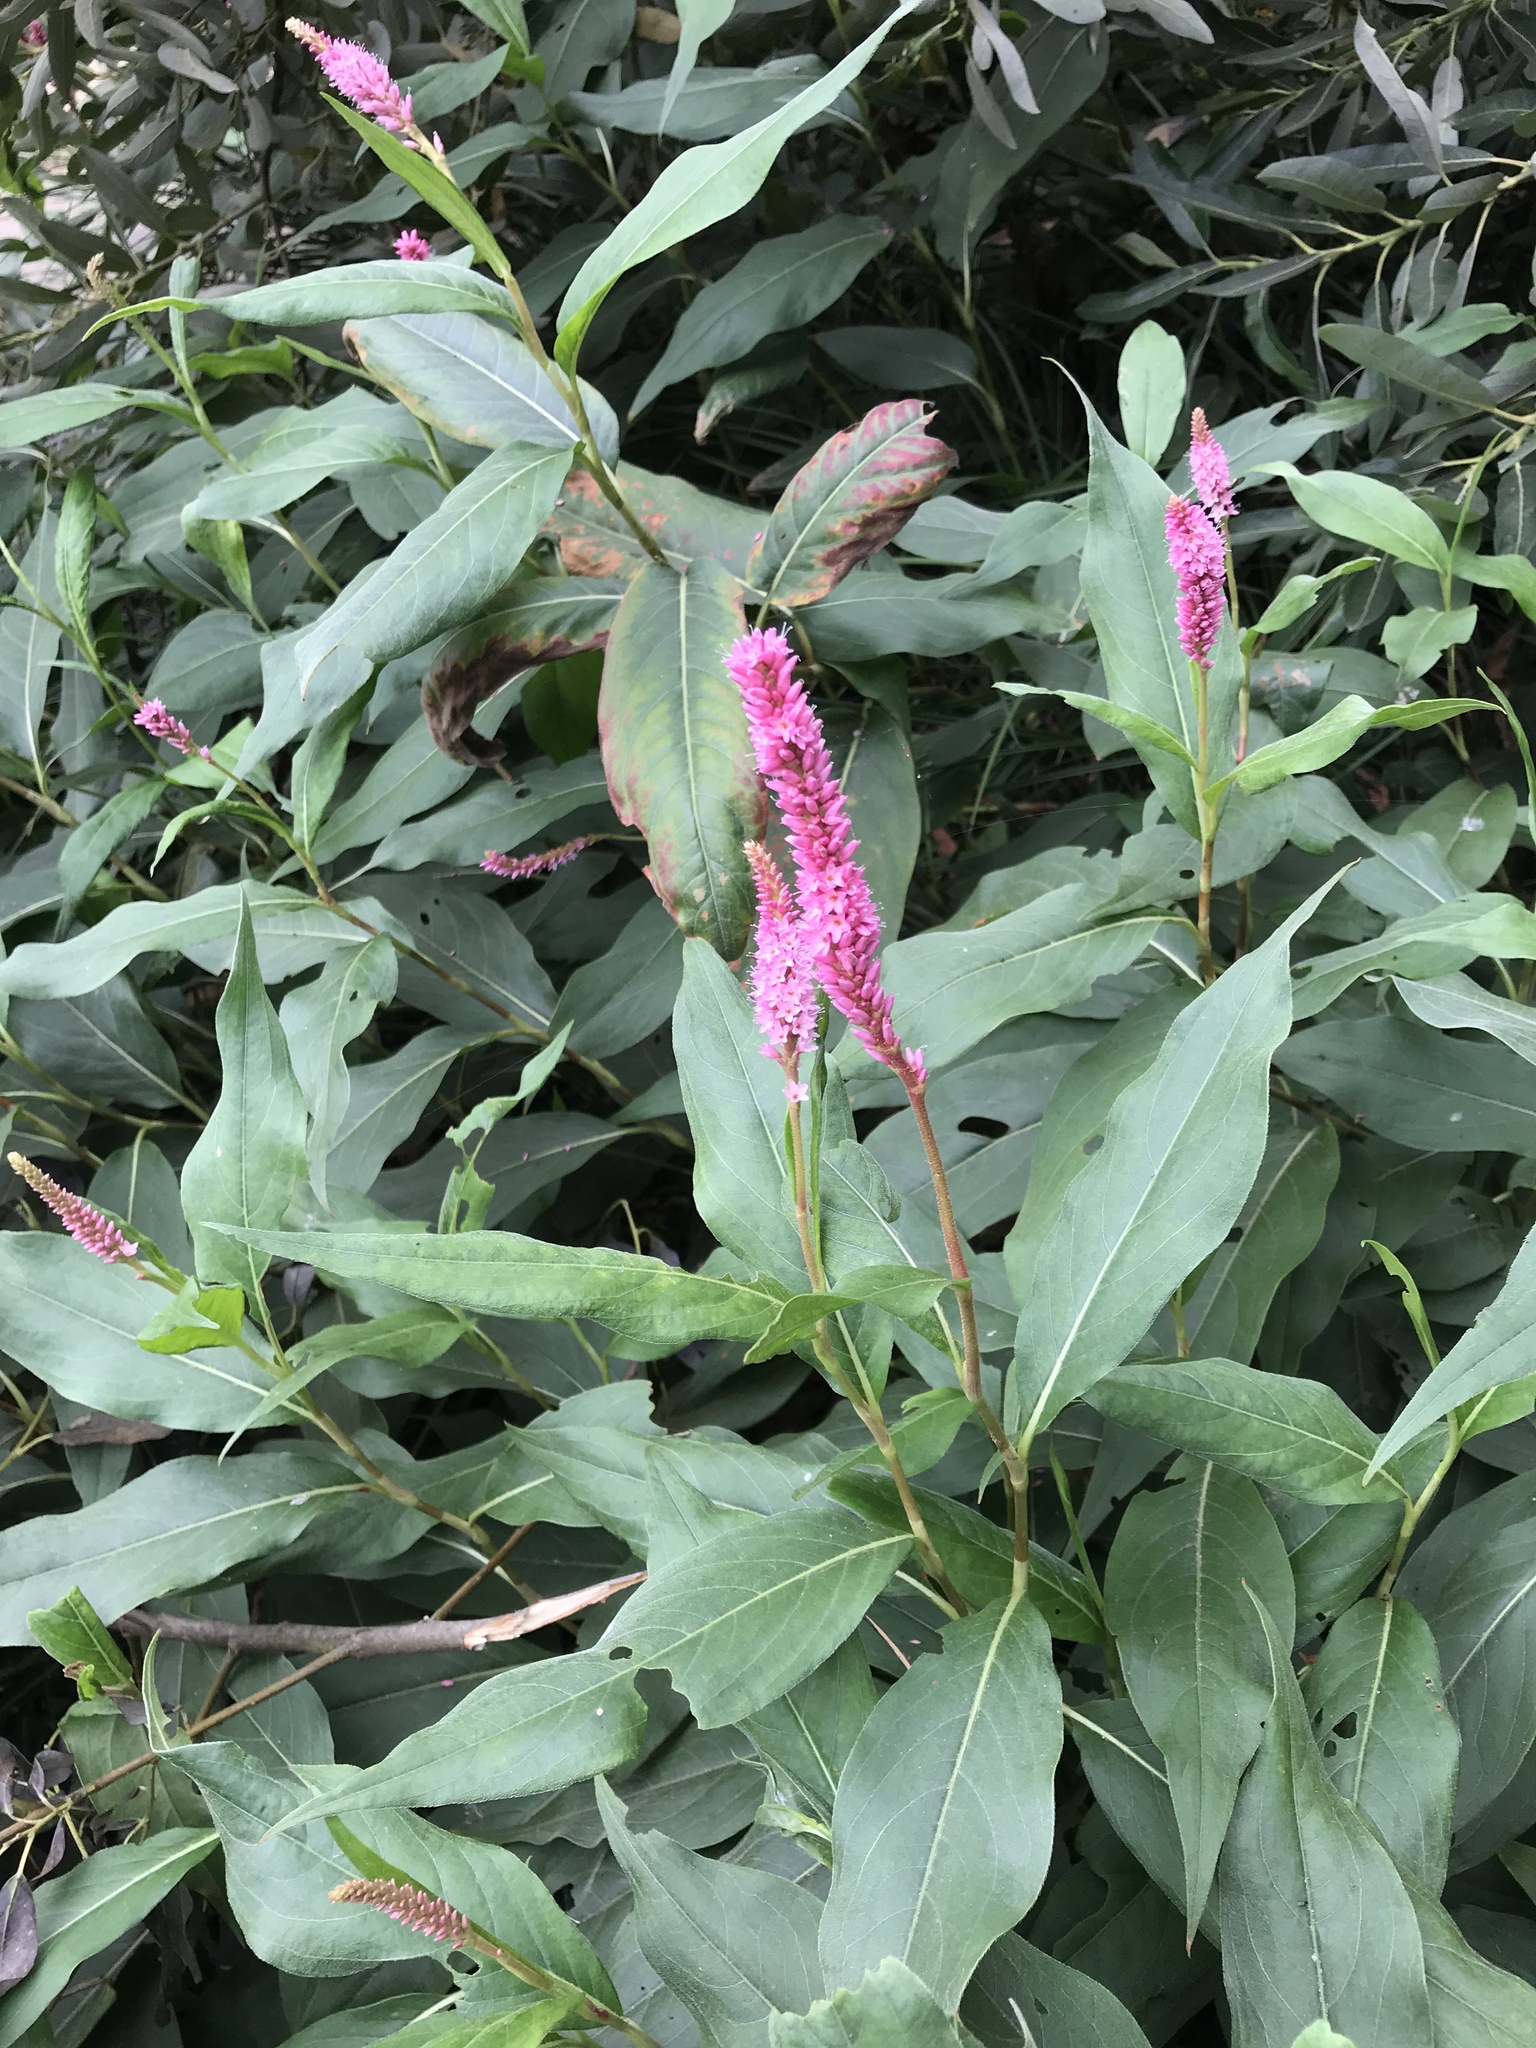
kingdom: Plantae
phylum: Tracheophyta
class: Magnoliopsida
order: Caryophyllales
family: Polygonaceae
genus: Persicaria
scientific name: Persicaria amphibia
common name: Amphibious bistort
